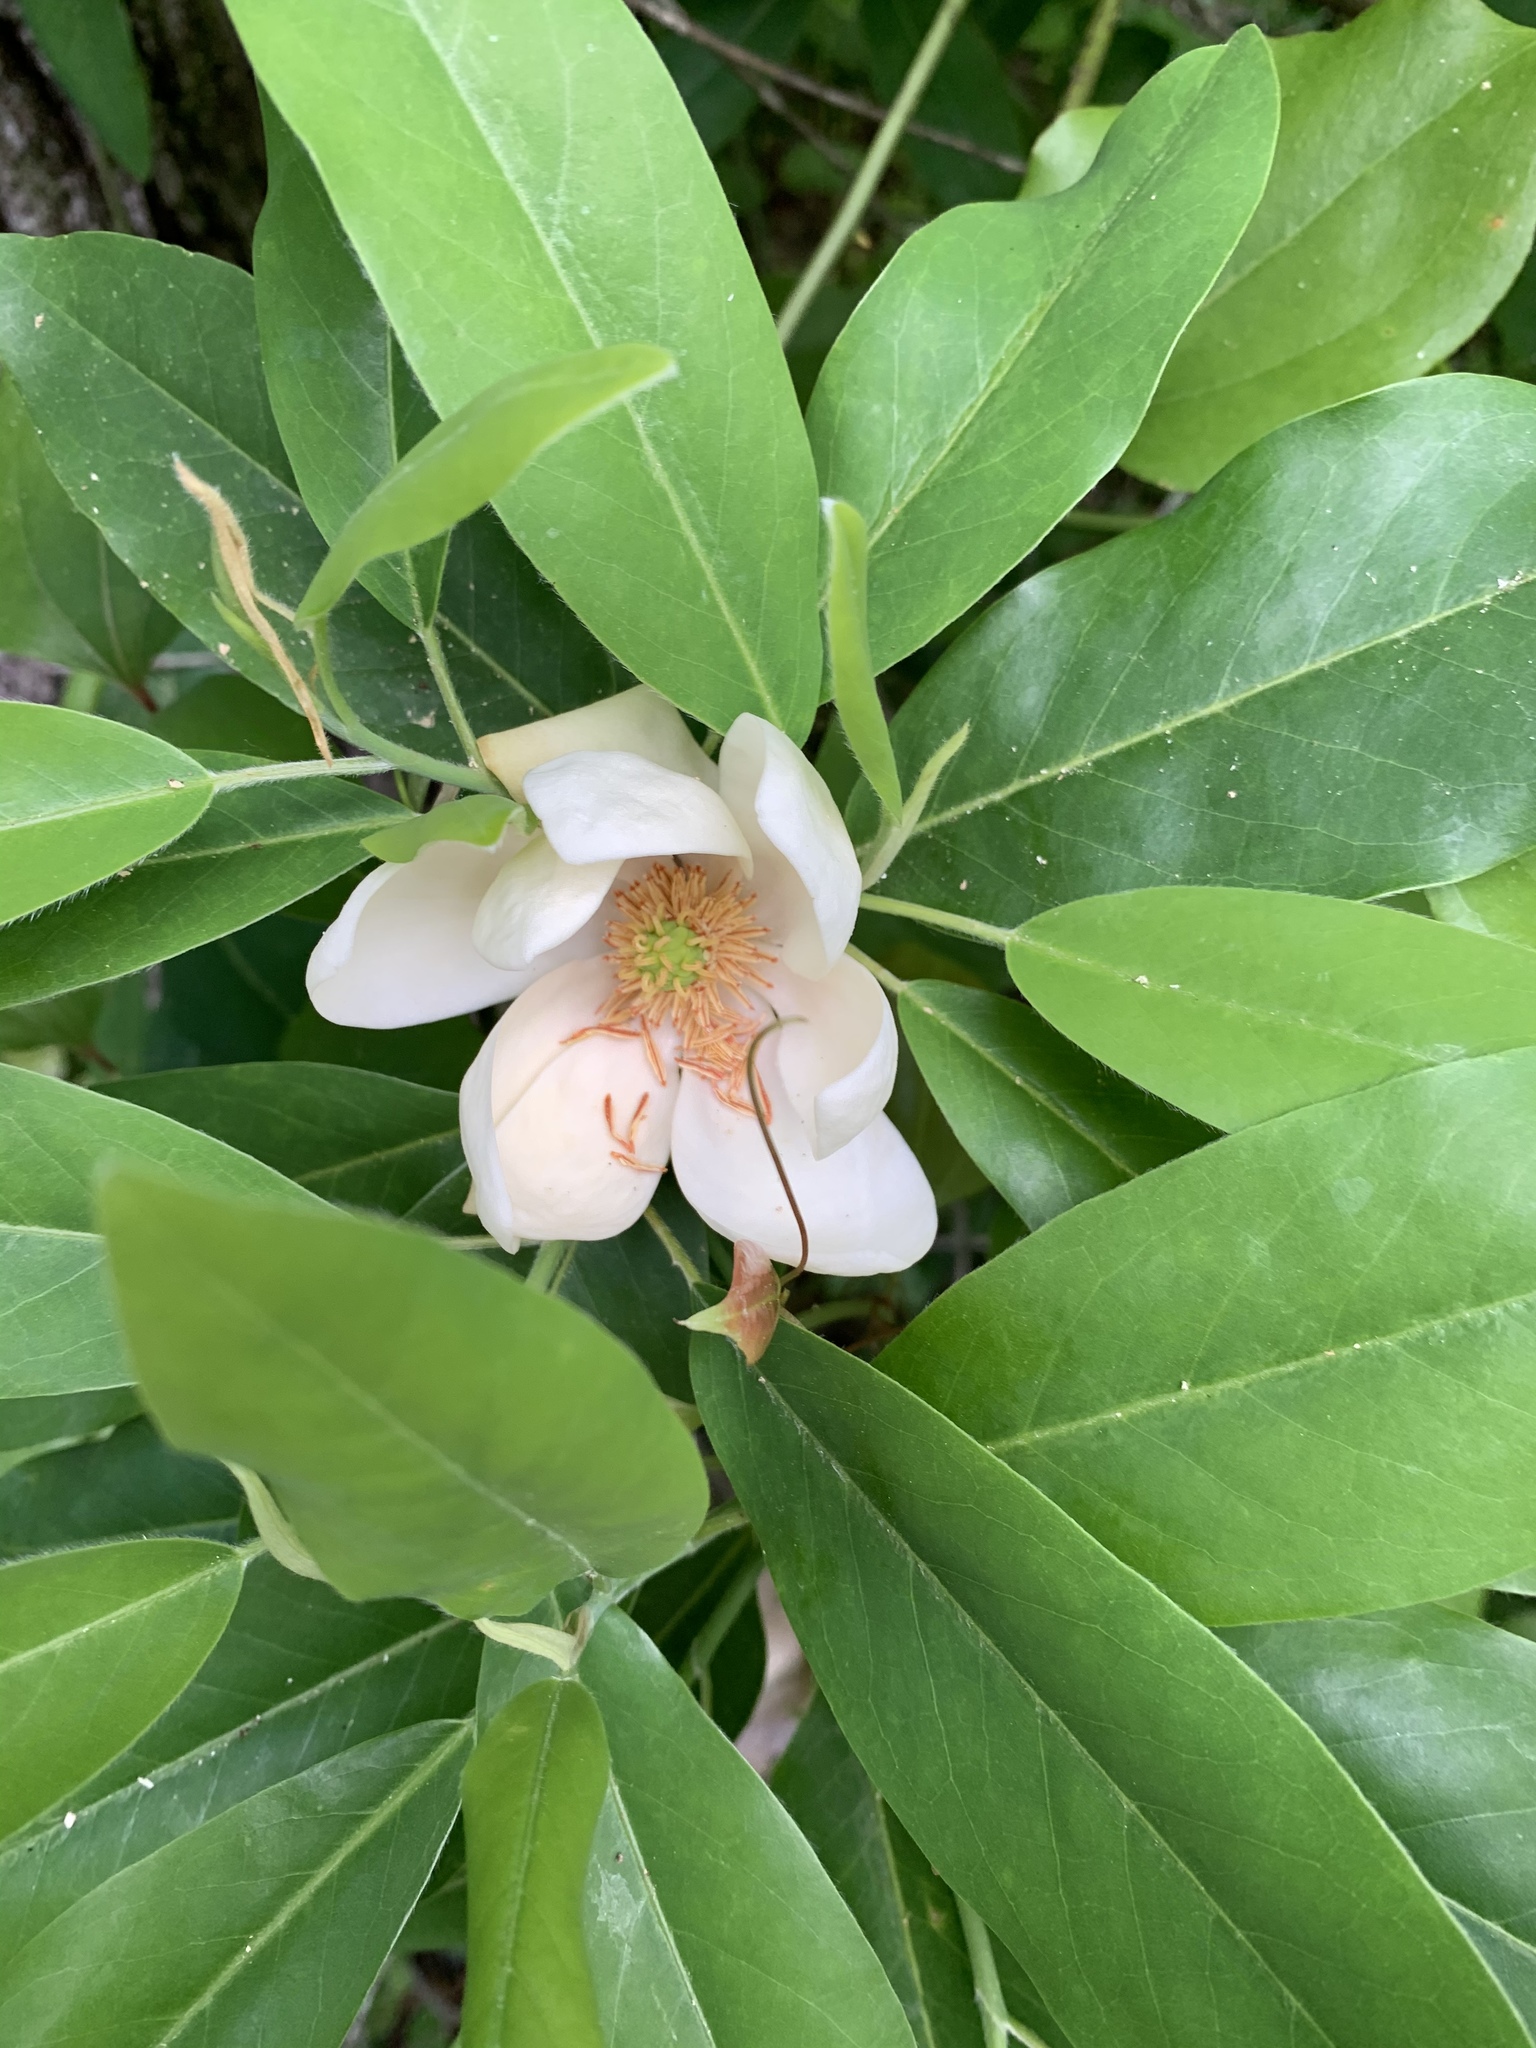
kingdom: Plantae
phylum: Tracheophyta
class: Magnoliopsida
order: Magnoliales
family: Magnoliaceae
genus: Magnolia
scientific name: Magnolia virginiana
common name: Swamp bay
